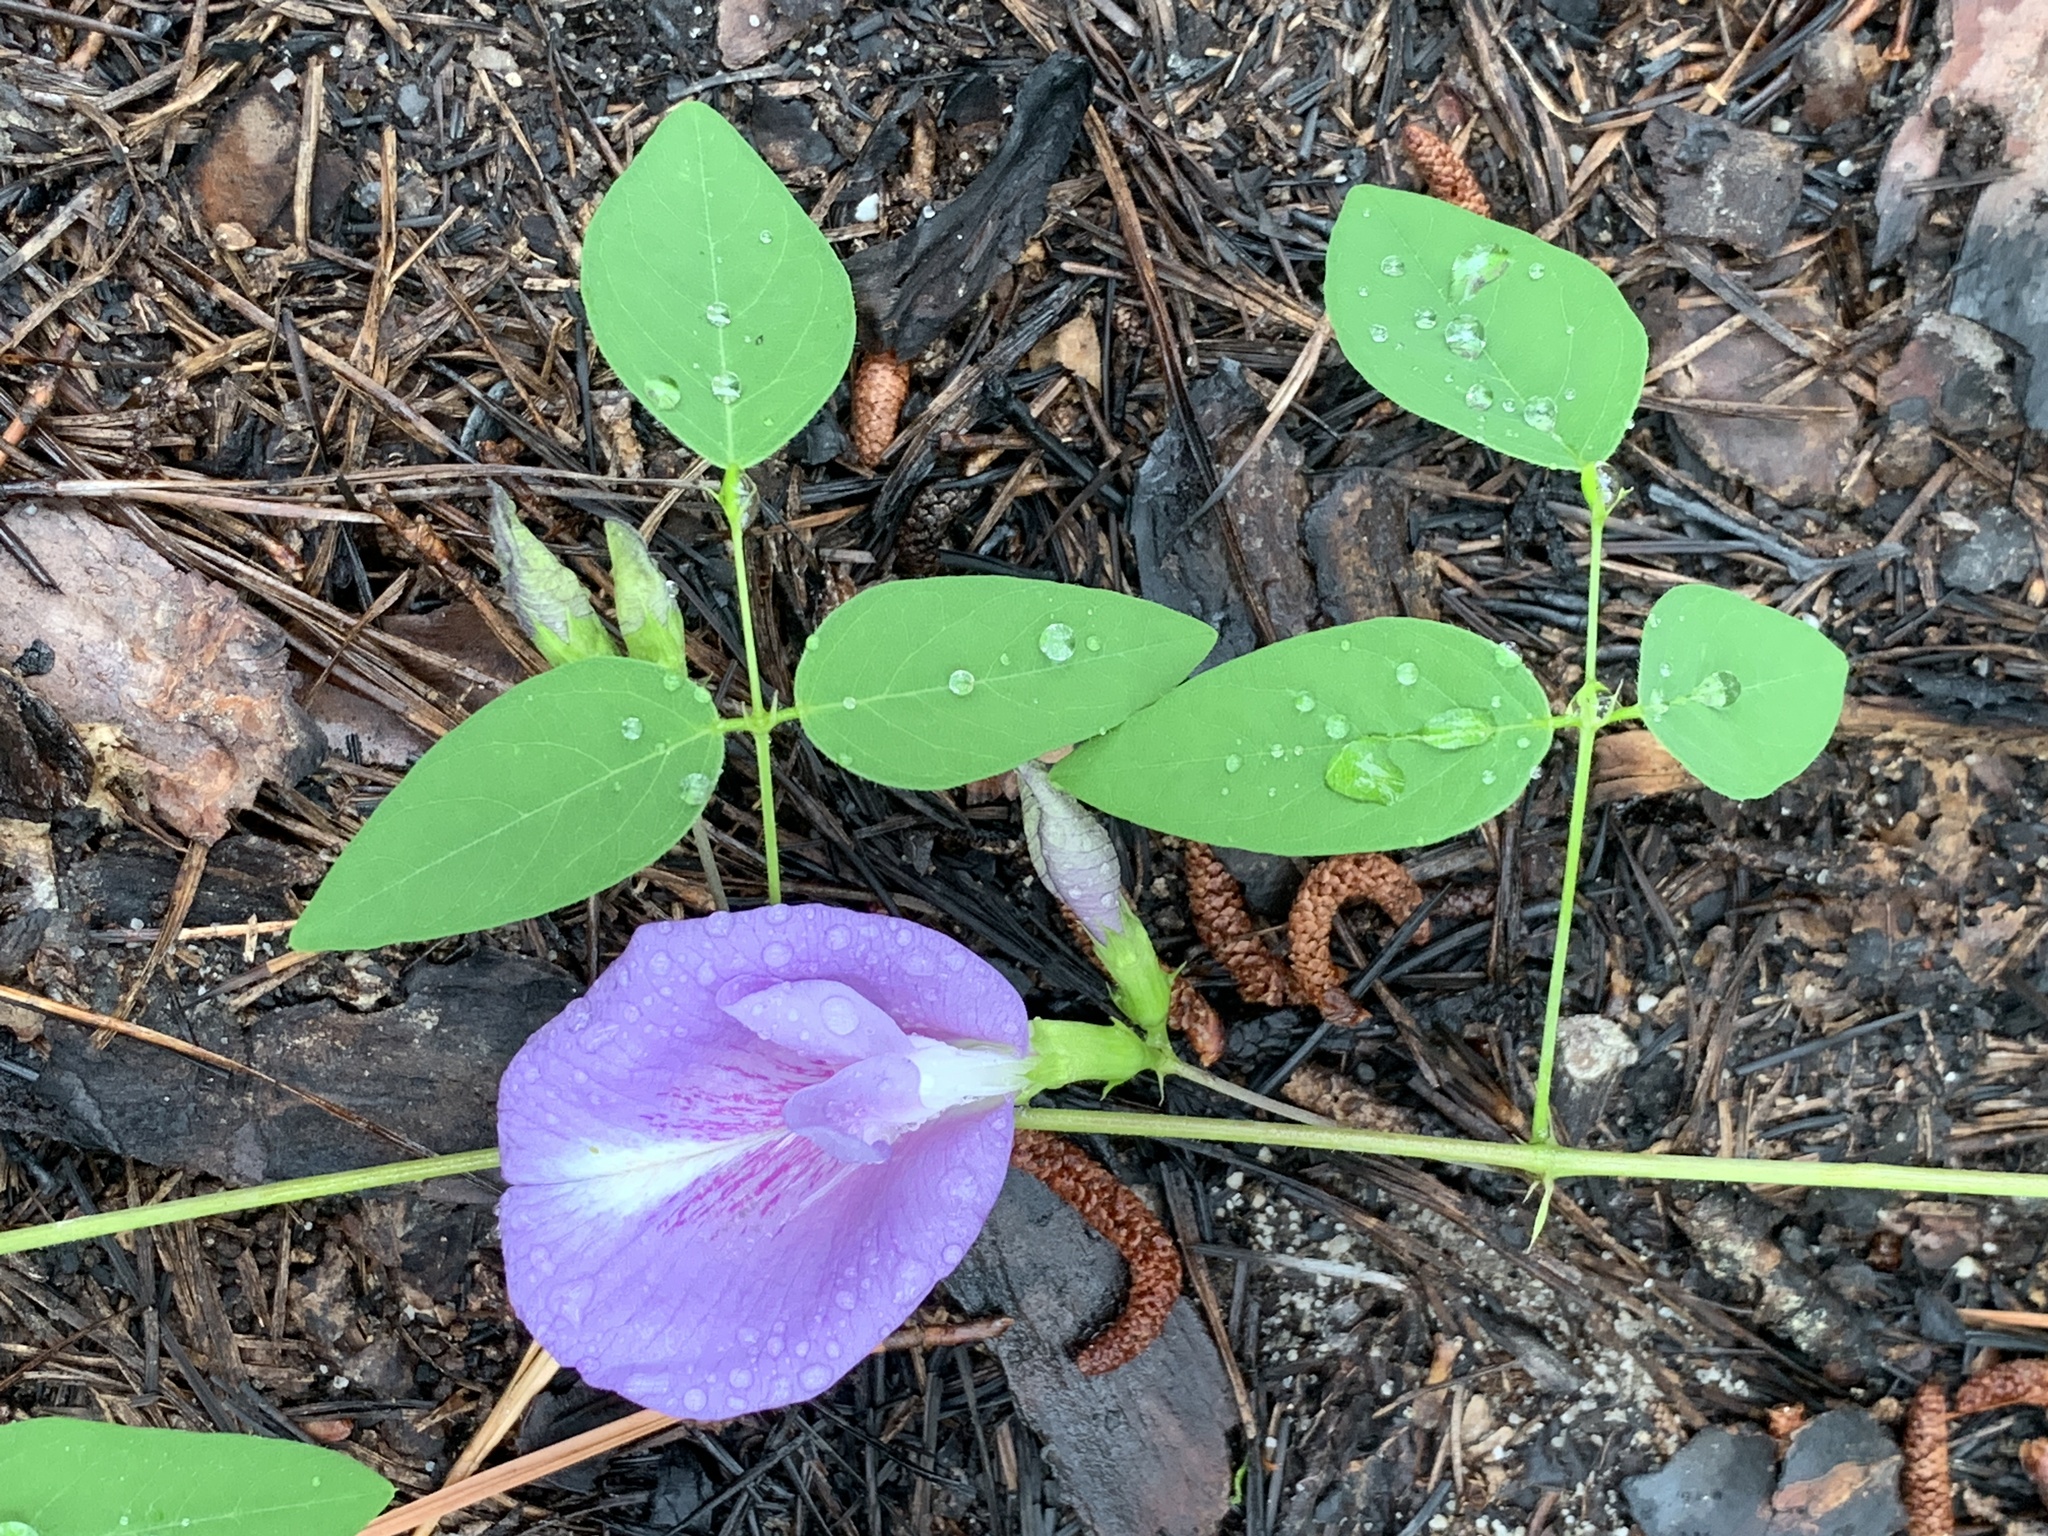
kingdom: Plantae
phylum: Tracheophyta
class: Magnoliopsida
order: Fabales
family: Fabaceae
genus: Clitoria
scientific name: Clitoria mariana
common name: Butterfly-pea
